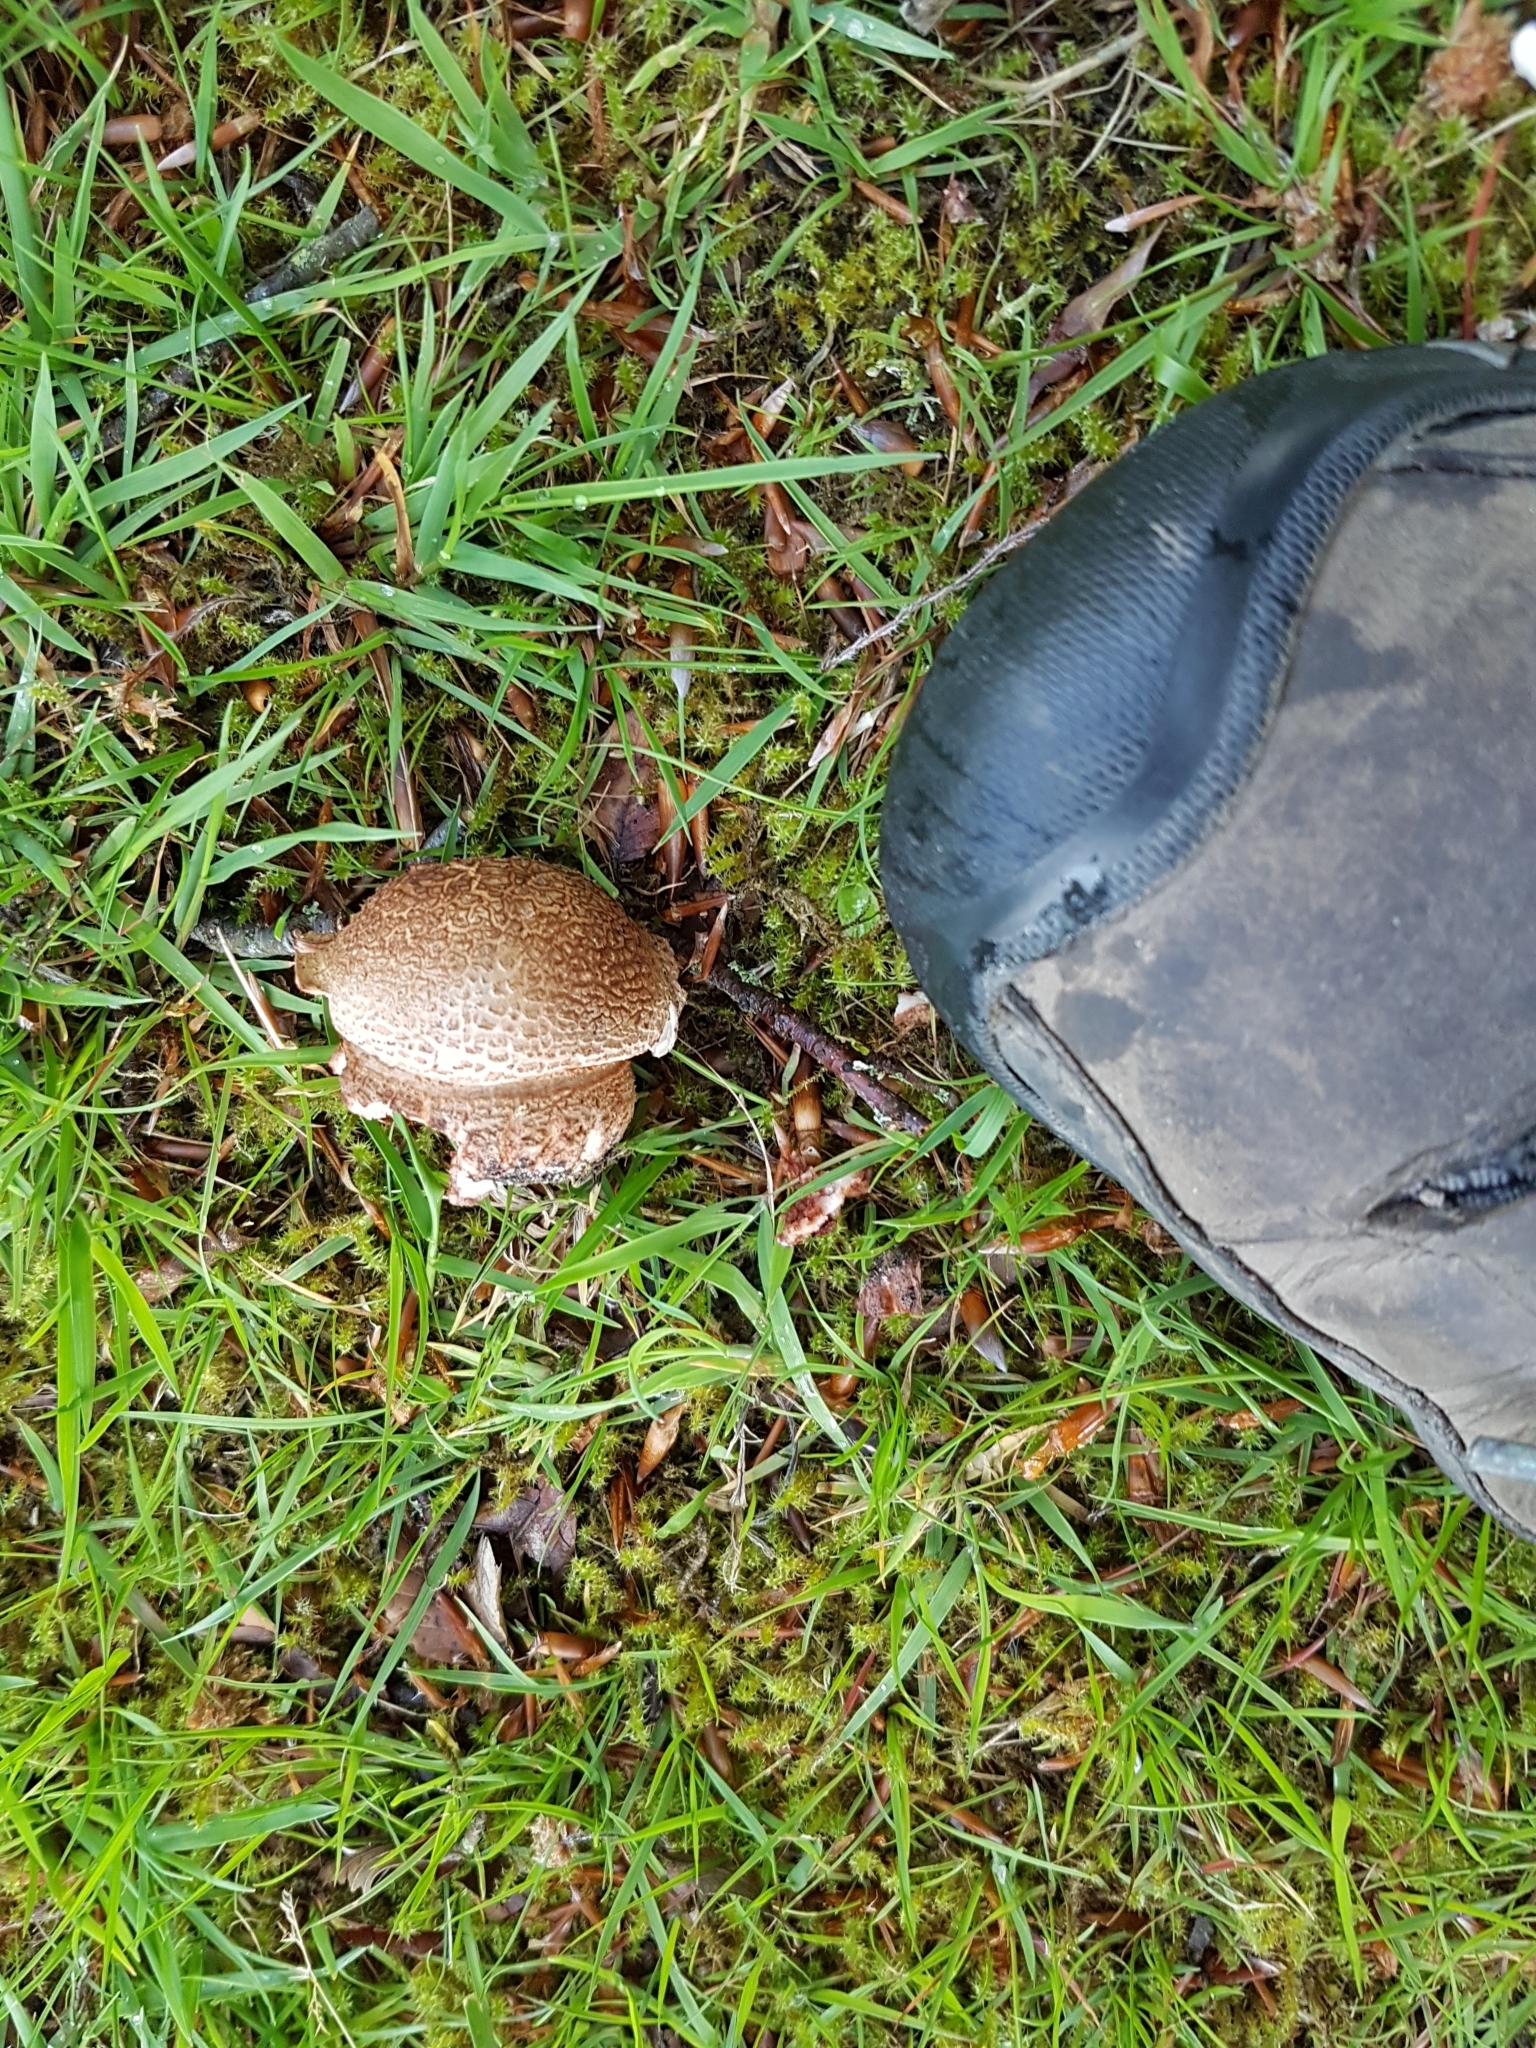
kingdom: Fungi
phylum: Basidiomycota
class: Agaricomycetes
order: Agaricales
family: Amanitaceae
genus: Amanita
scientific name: Amanita rubescens
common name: Blusher
